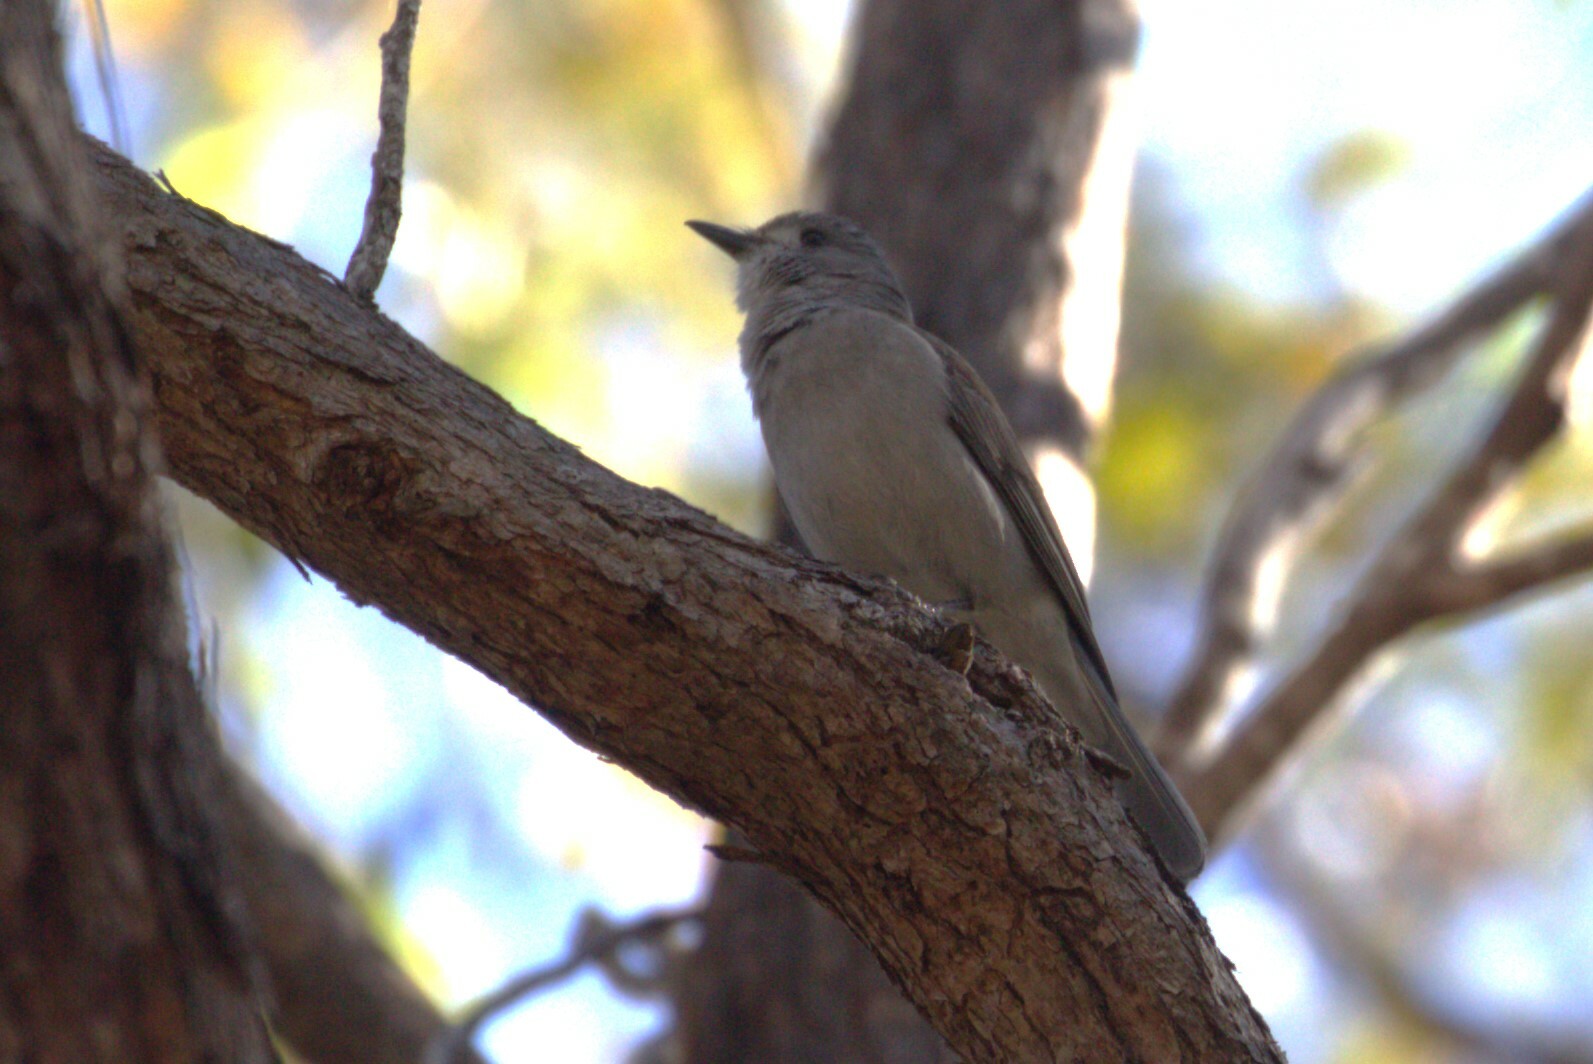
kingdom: Animalia
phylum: Chordata
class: Aves
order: Passeriformes
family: Pachycephalidae
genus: Colluricincla
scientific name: Colluricincla harmonica
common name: Grey shrikethrush
